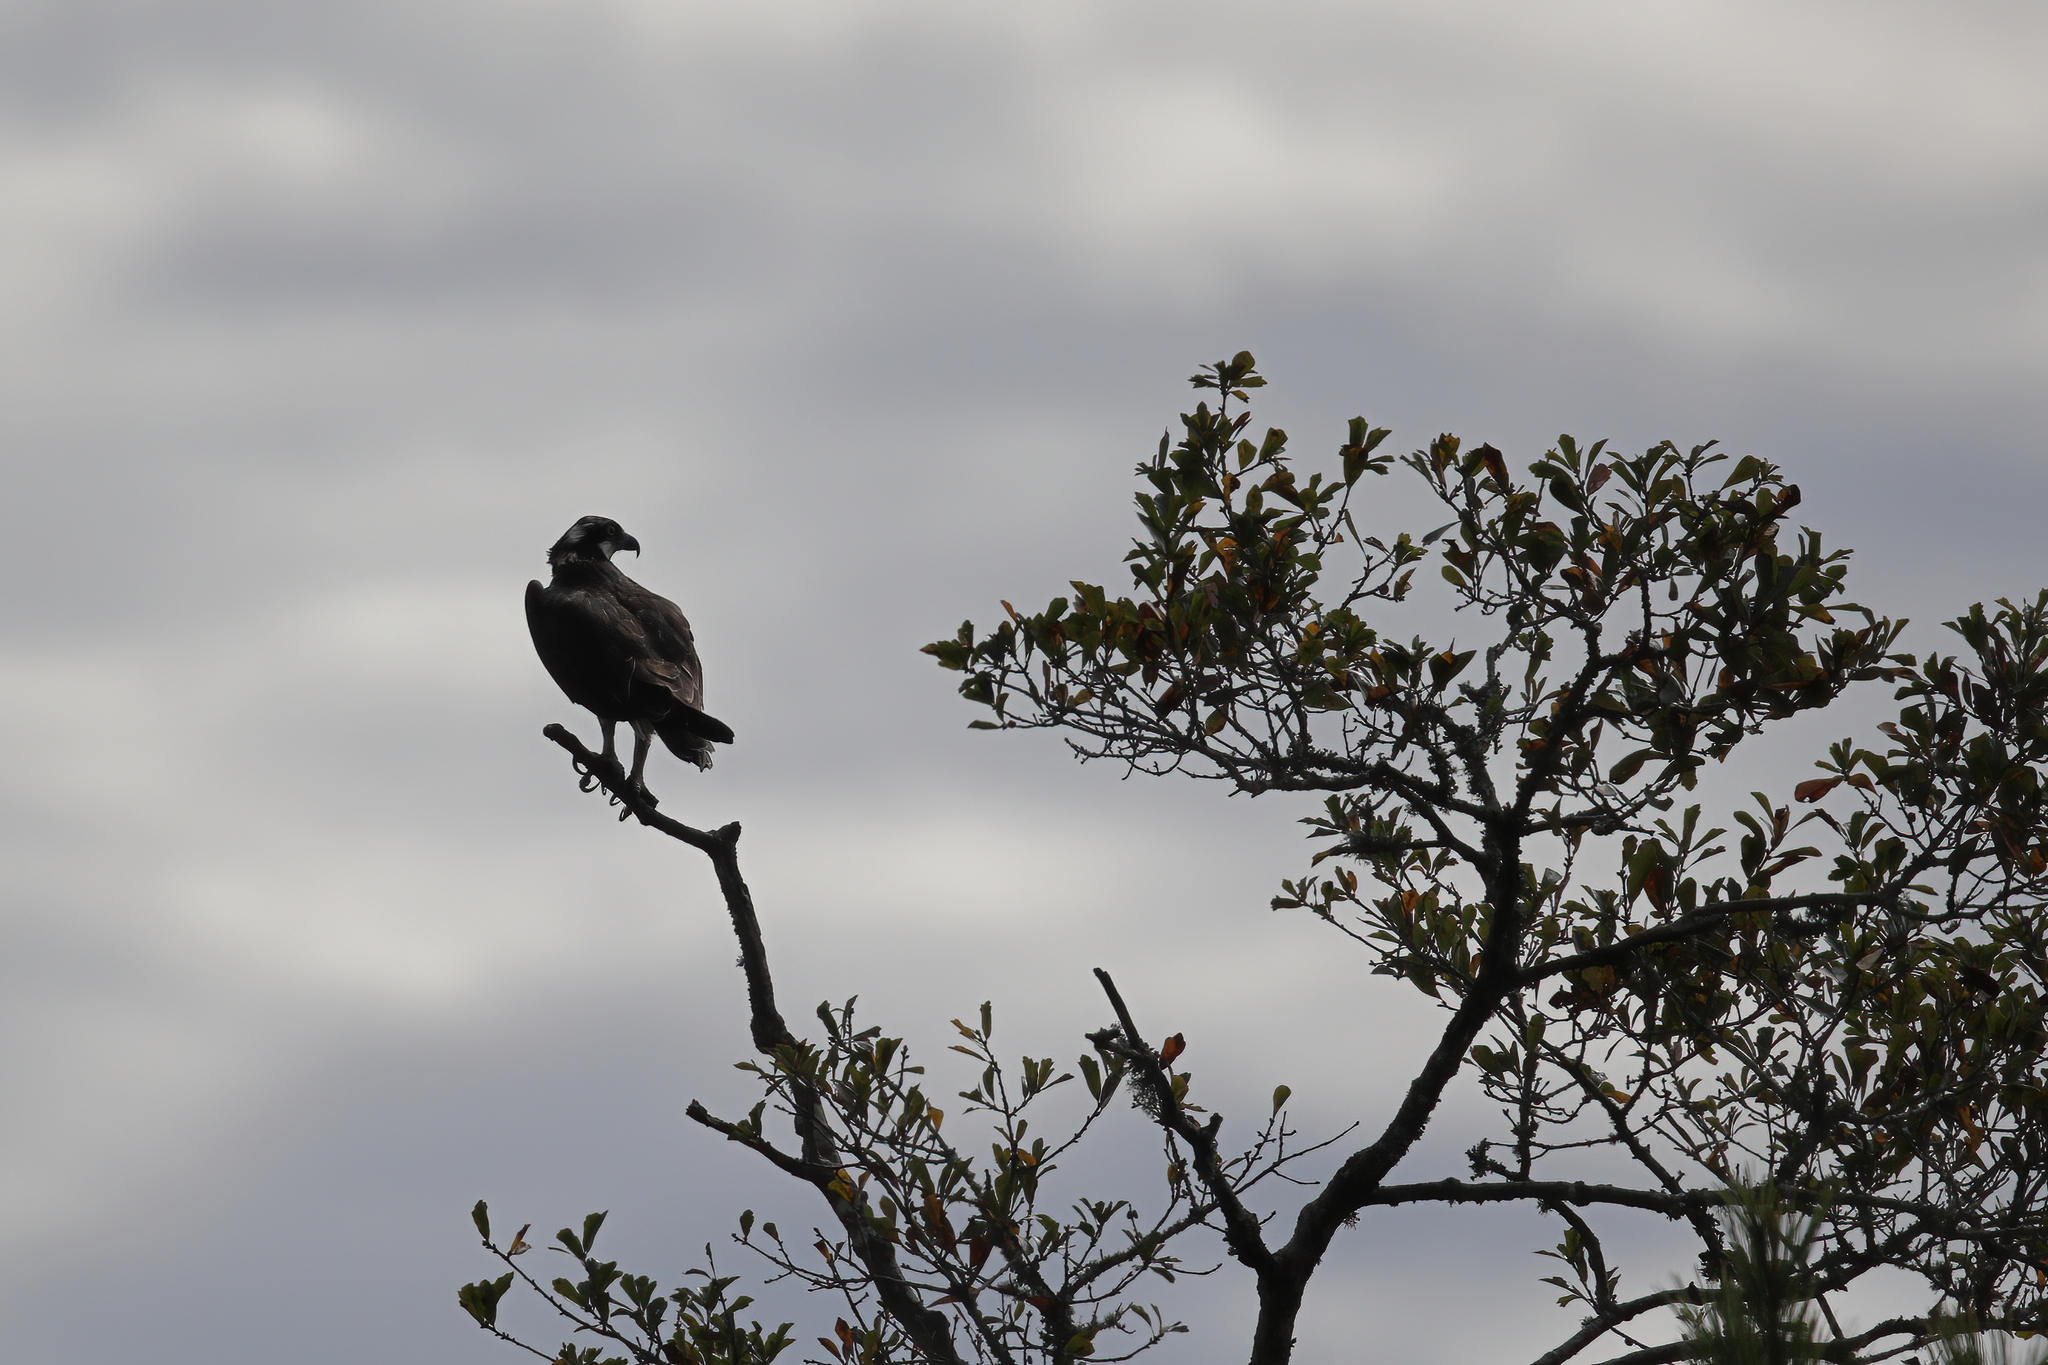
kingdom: Animalia
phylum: Chordata
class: Aves
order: Accipitriformes
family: Pandionidae
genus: Pandion
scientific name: Pandion haliaetus
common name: Osprey
